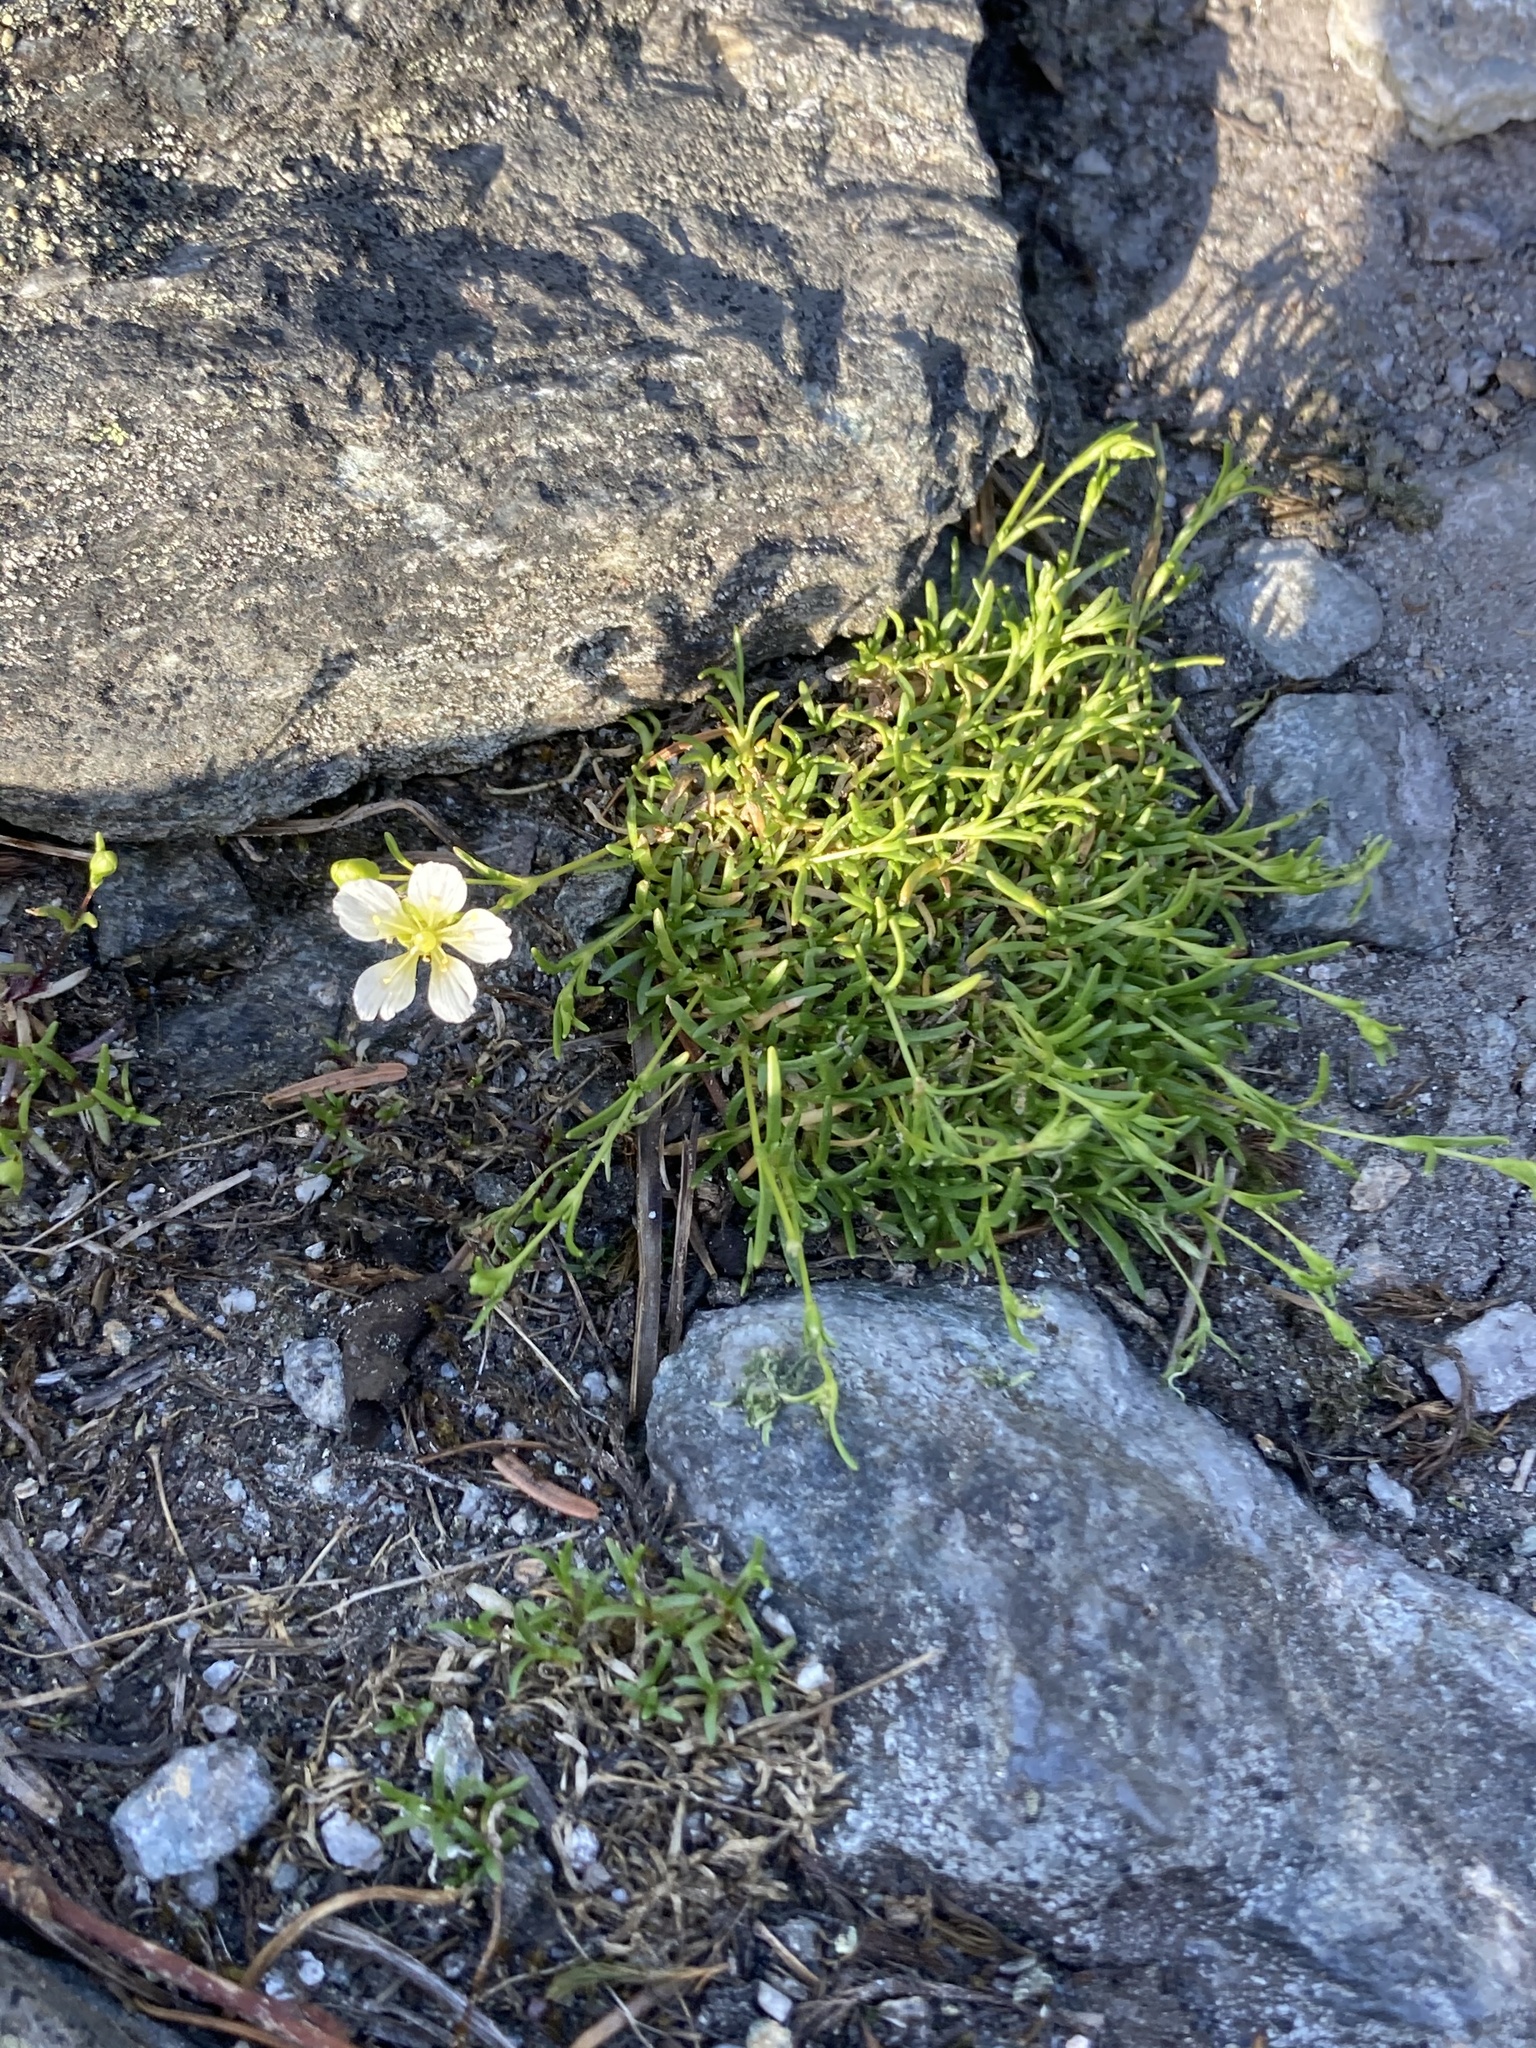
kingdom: Plantae
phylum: Tracheophyta
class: Magnoliopsida
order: Caryophyllales
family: Caryophyllaceae
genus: Geocarpon
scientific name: Geocarpon groenlandicum
